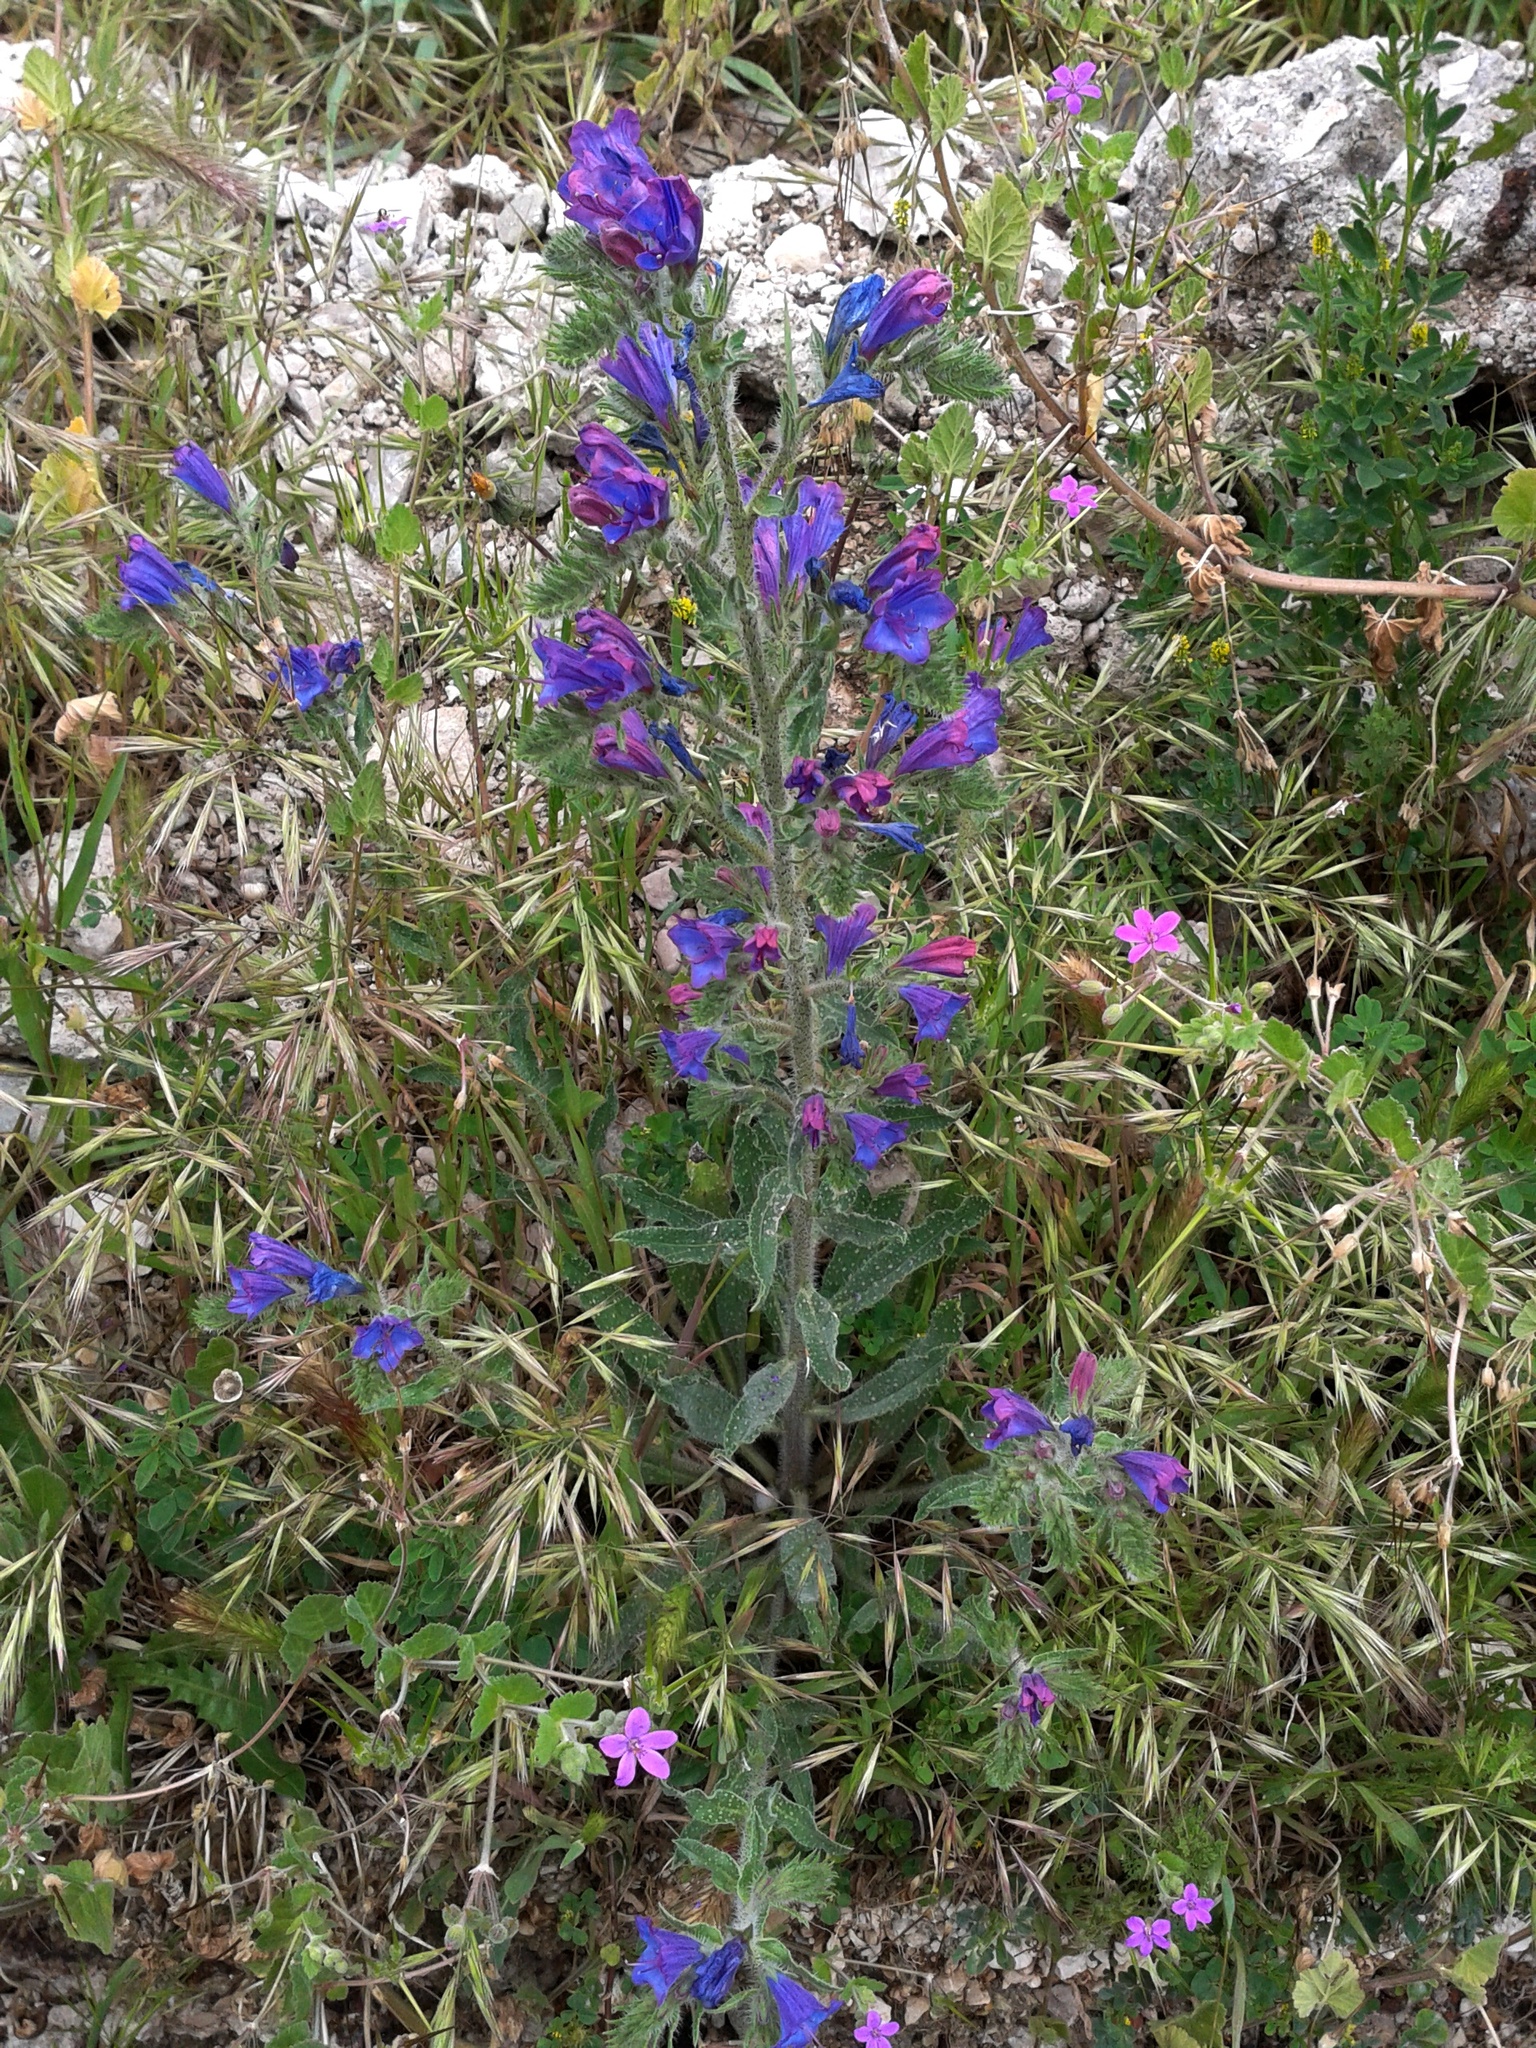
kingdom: Plantae
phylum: Tracheophyta
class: Magnoliopsida
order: Boraginales
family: Boraginaceae
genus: Echium
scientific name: Echium vulgare
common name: Common viper's bugloss
